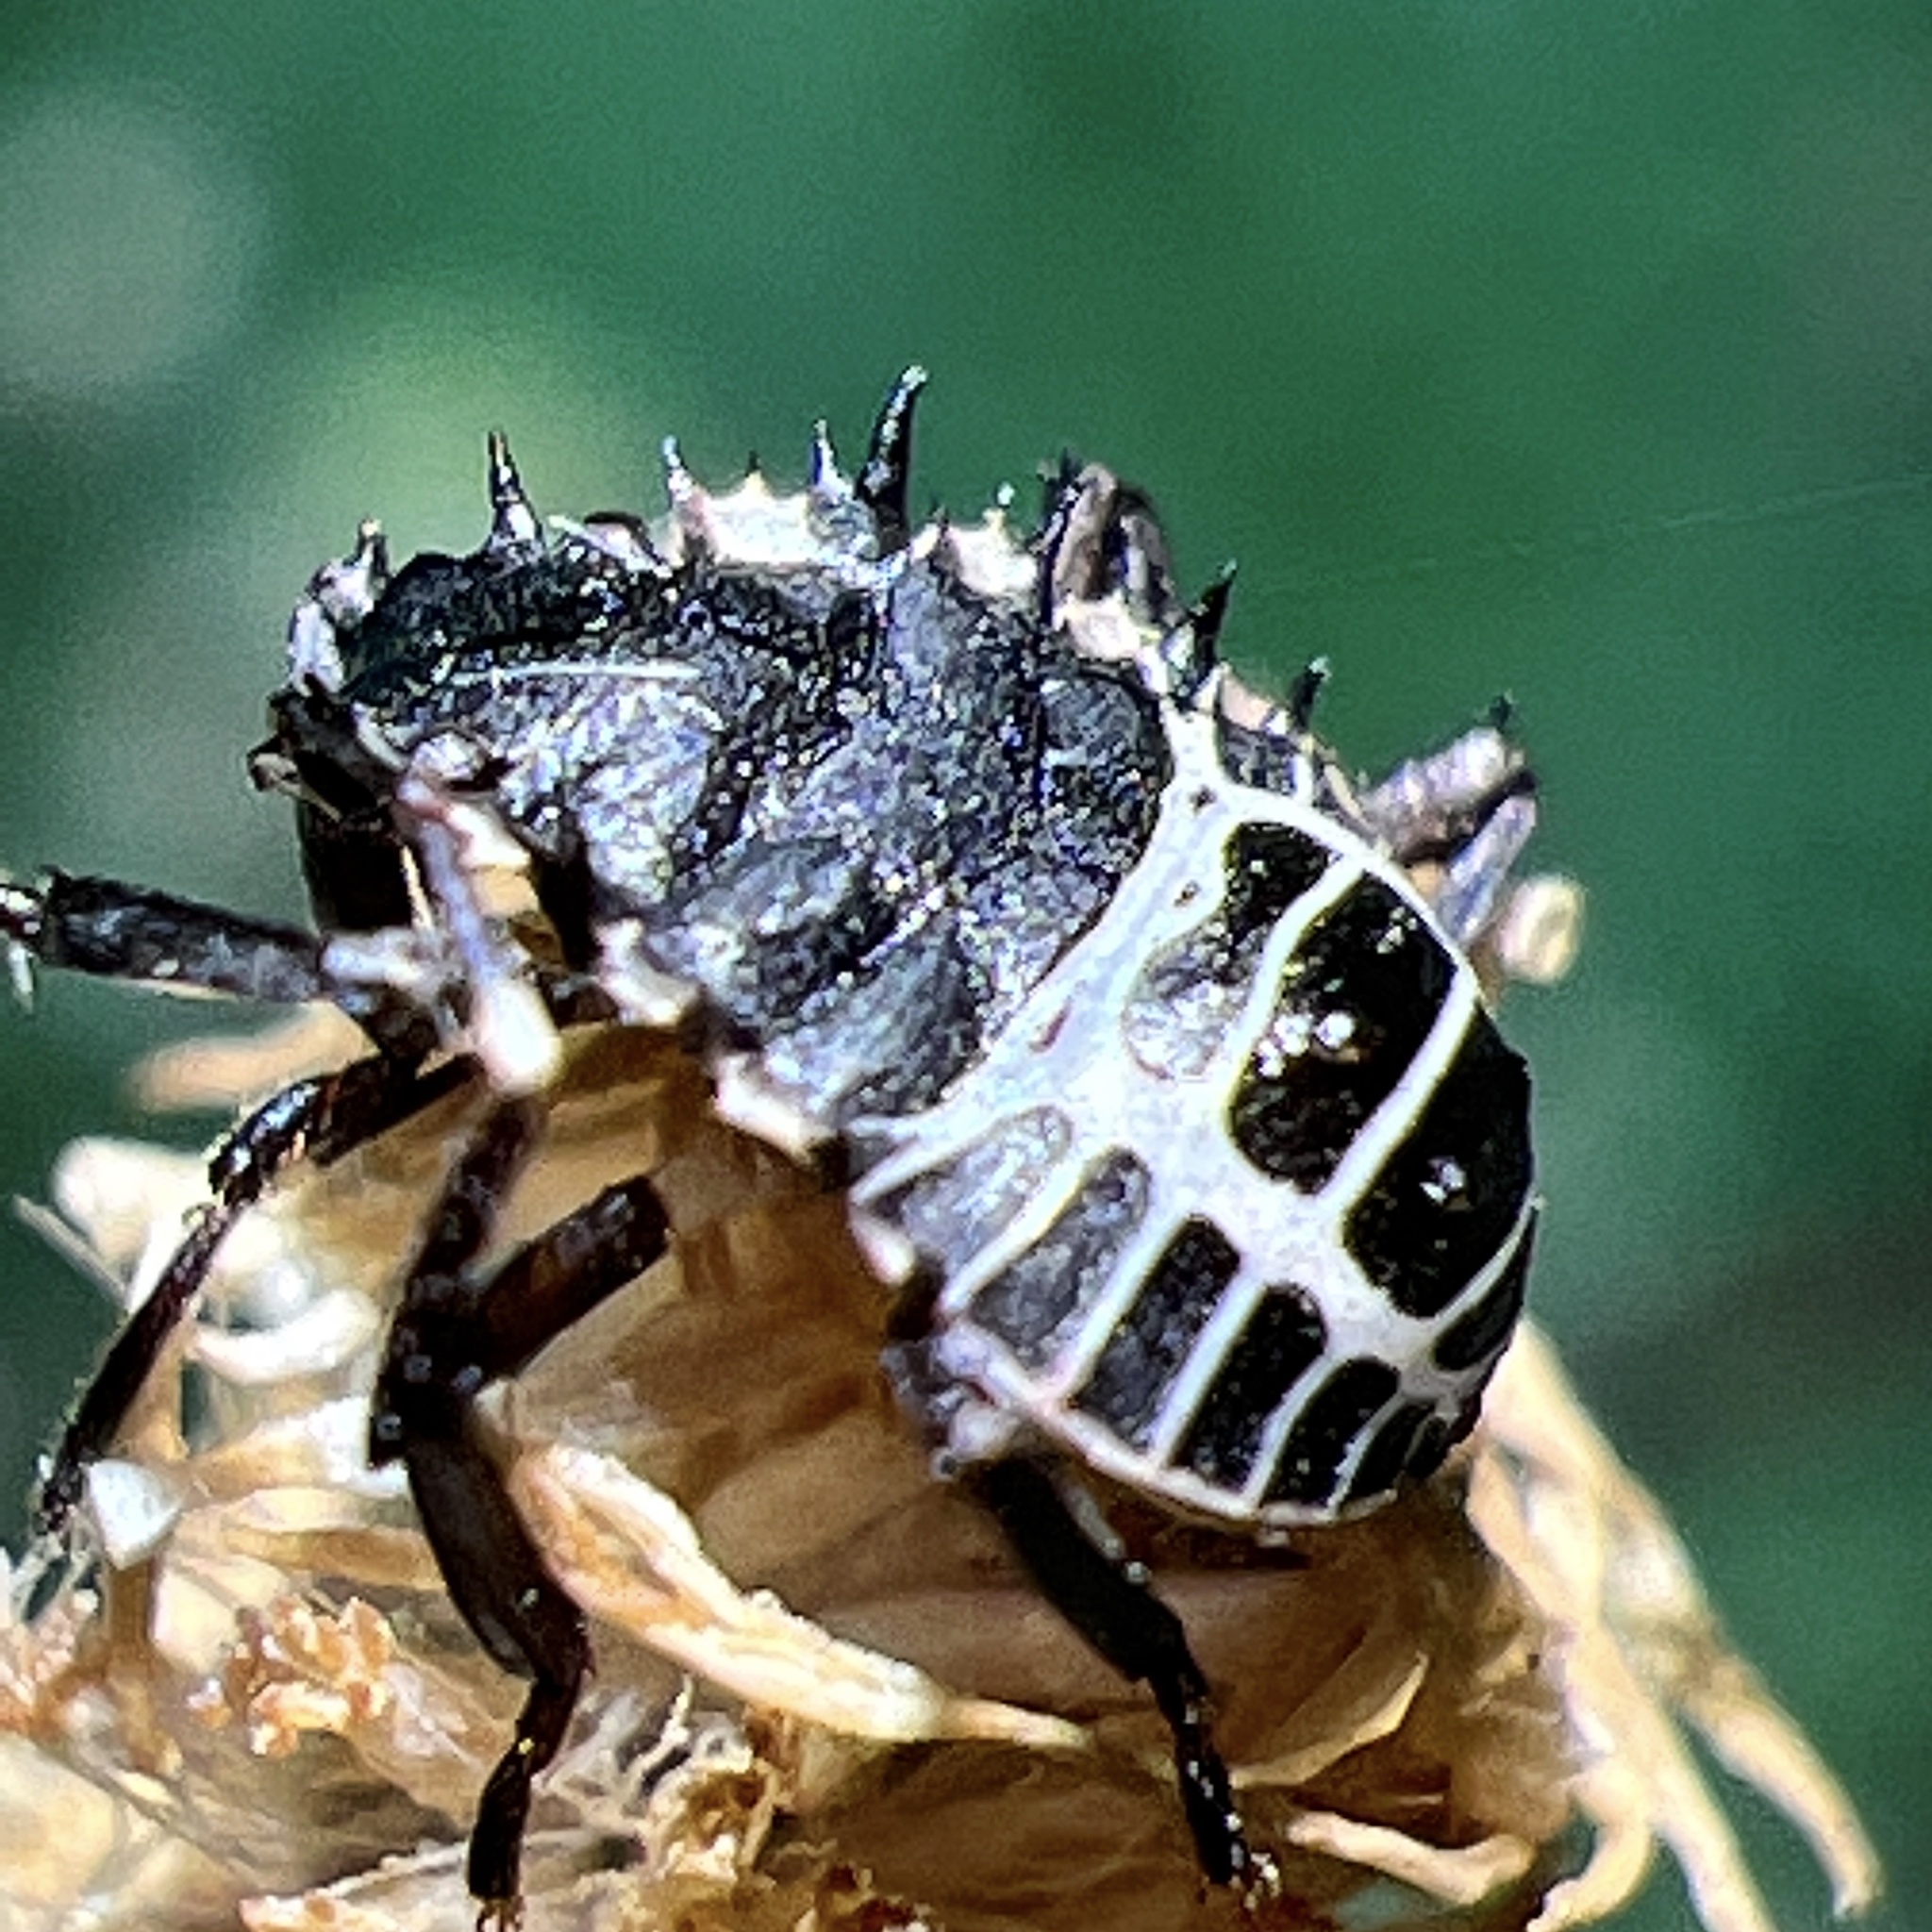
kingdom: Animalia
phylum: Arthropoda
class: Insecta
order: Hemiptera
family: Pentatomidae
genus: Halyomorpha
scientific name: Halyomorpha halys
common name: Brown marmorated stink bug
